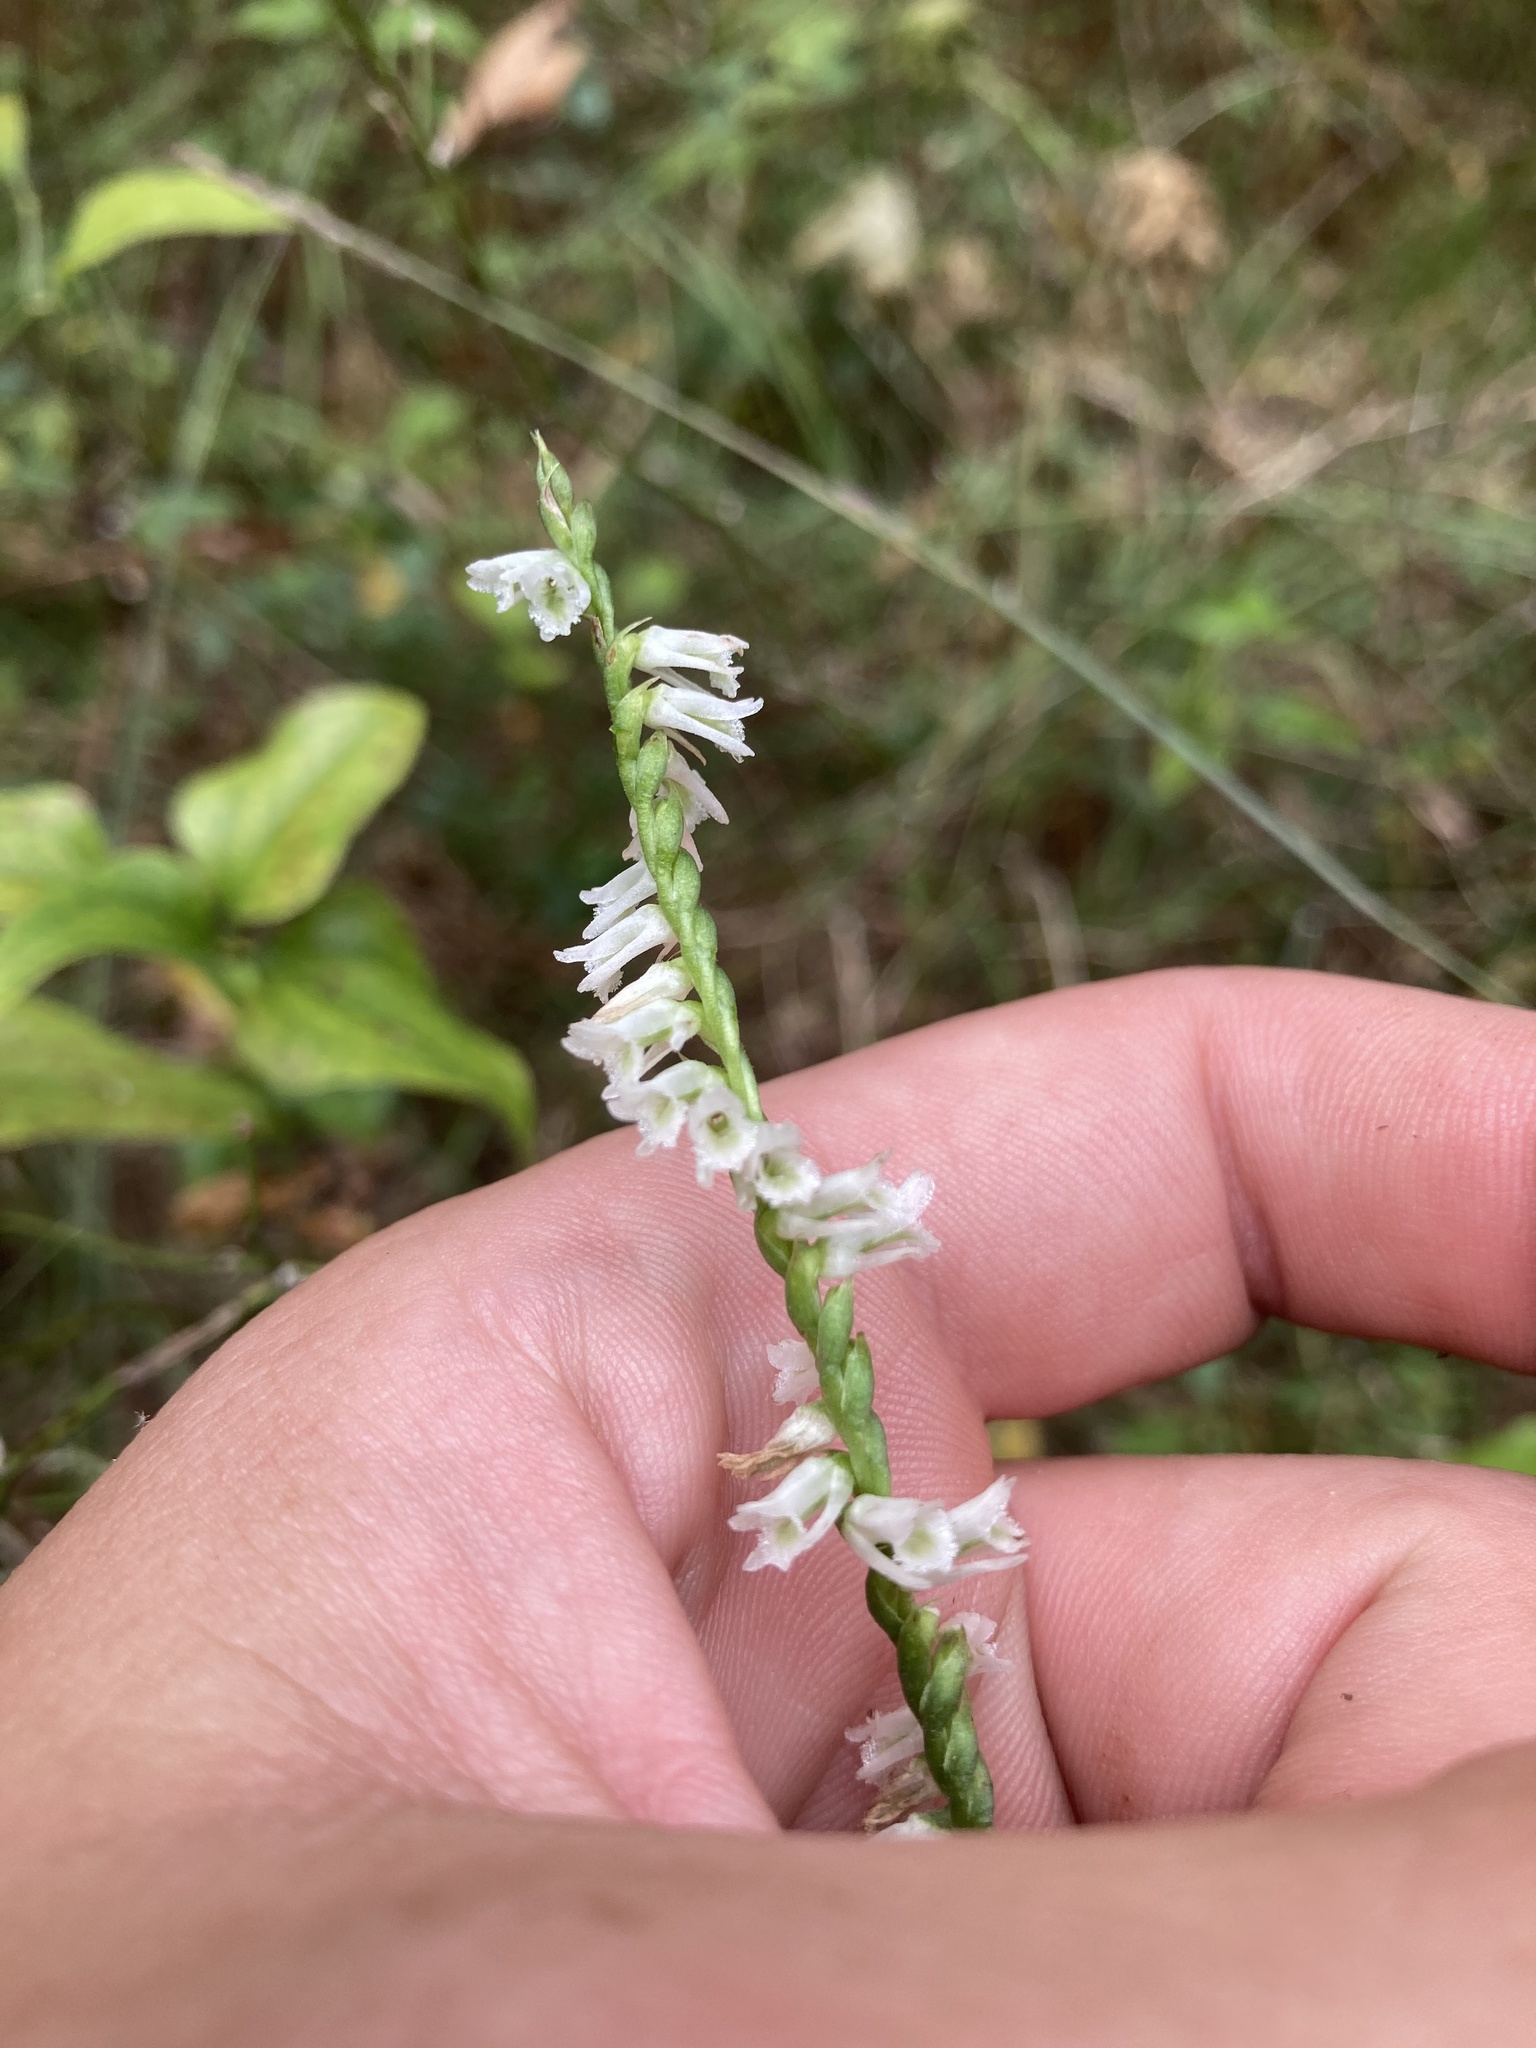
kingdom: Plantae
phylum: Tracheophyta
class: Liliopsida
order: Asparagales
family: Orchidaceae
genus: Spiranthes
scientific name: Spiranthes lacera
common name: Northern slender ladies'-tresses
